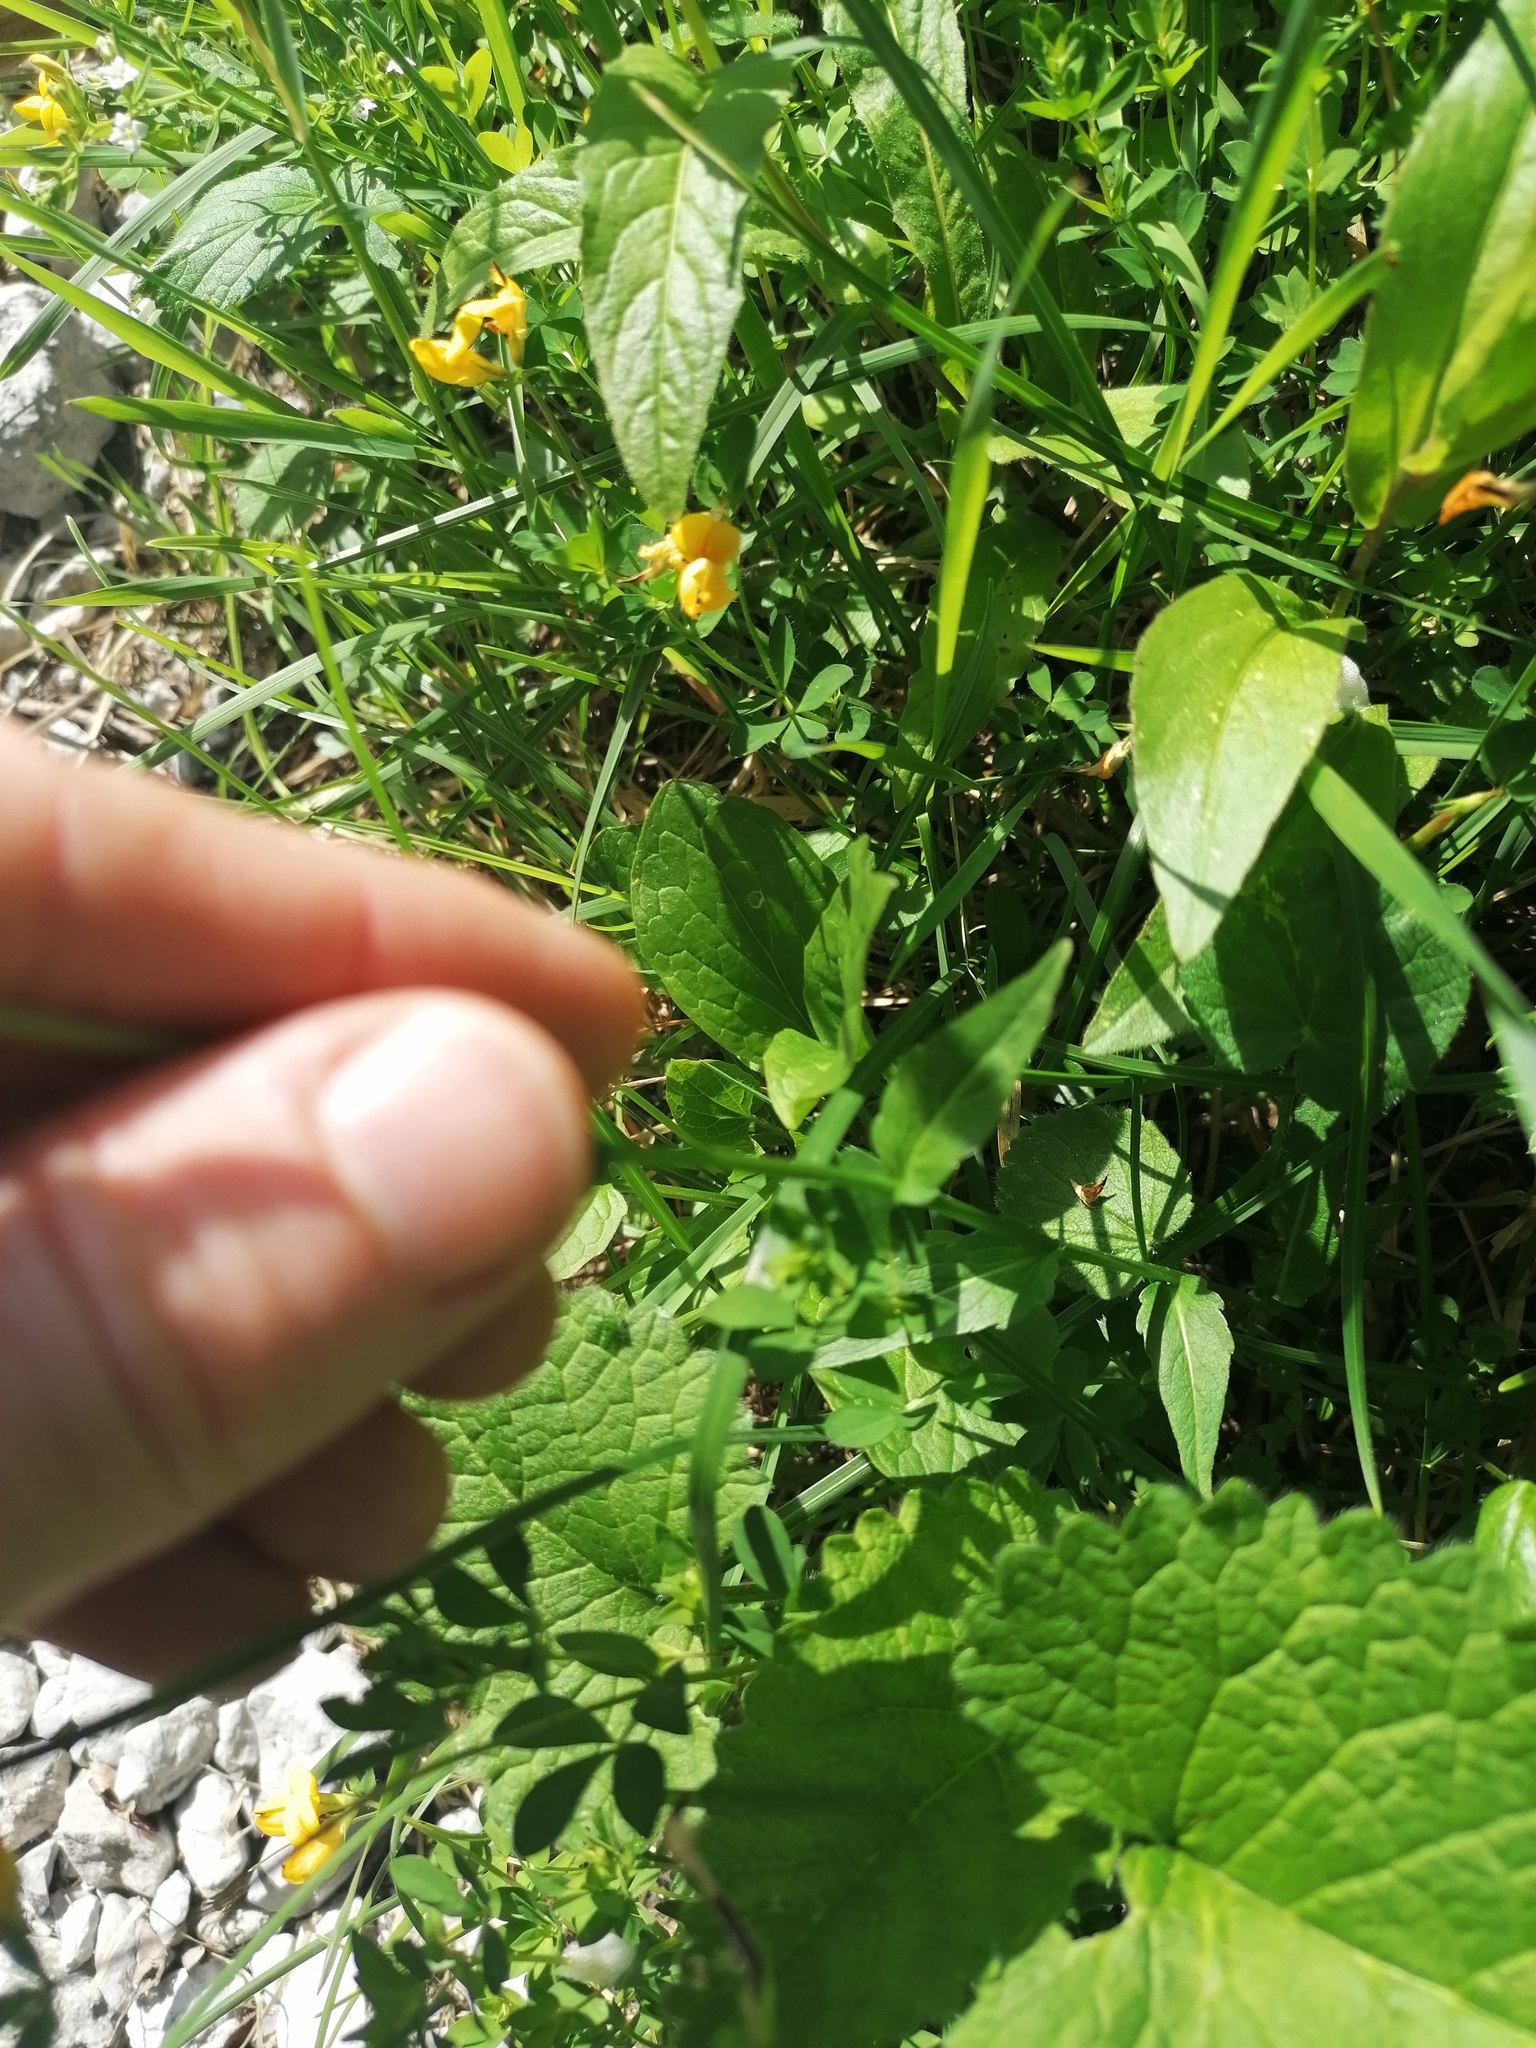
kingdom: Plantae
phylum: Tracheophyta
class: Magnoliopsida
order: Asterales
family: Campanulaceae
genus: Phyteuma
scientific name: Phyteuma orbiculare
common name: Round-headed rampion
